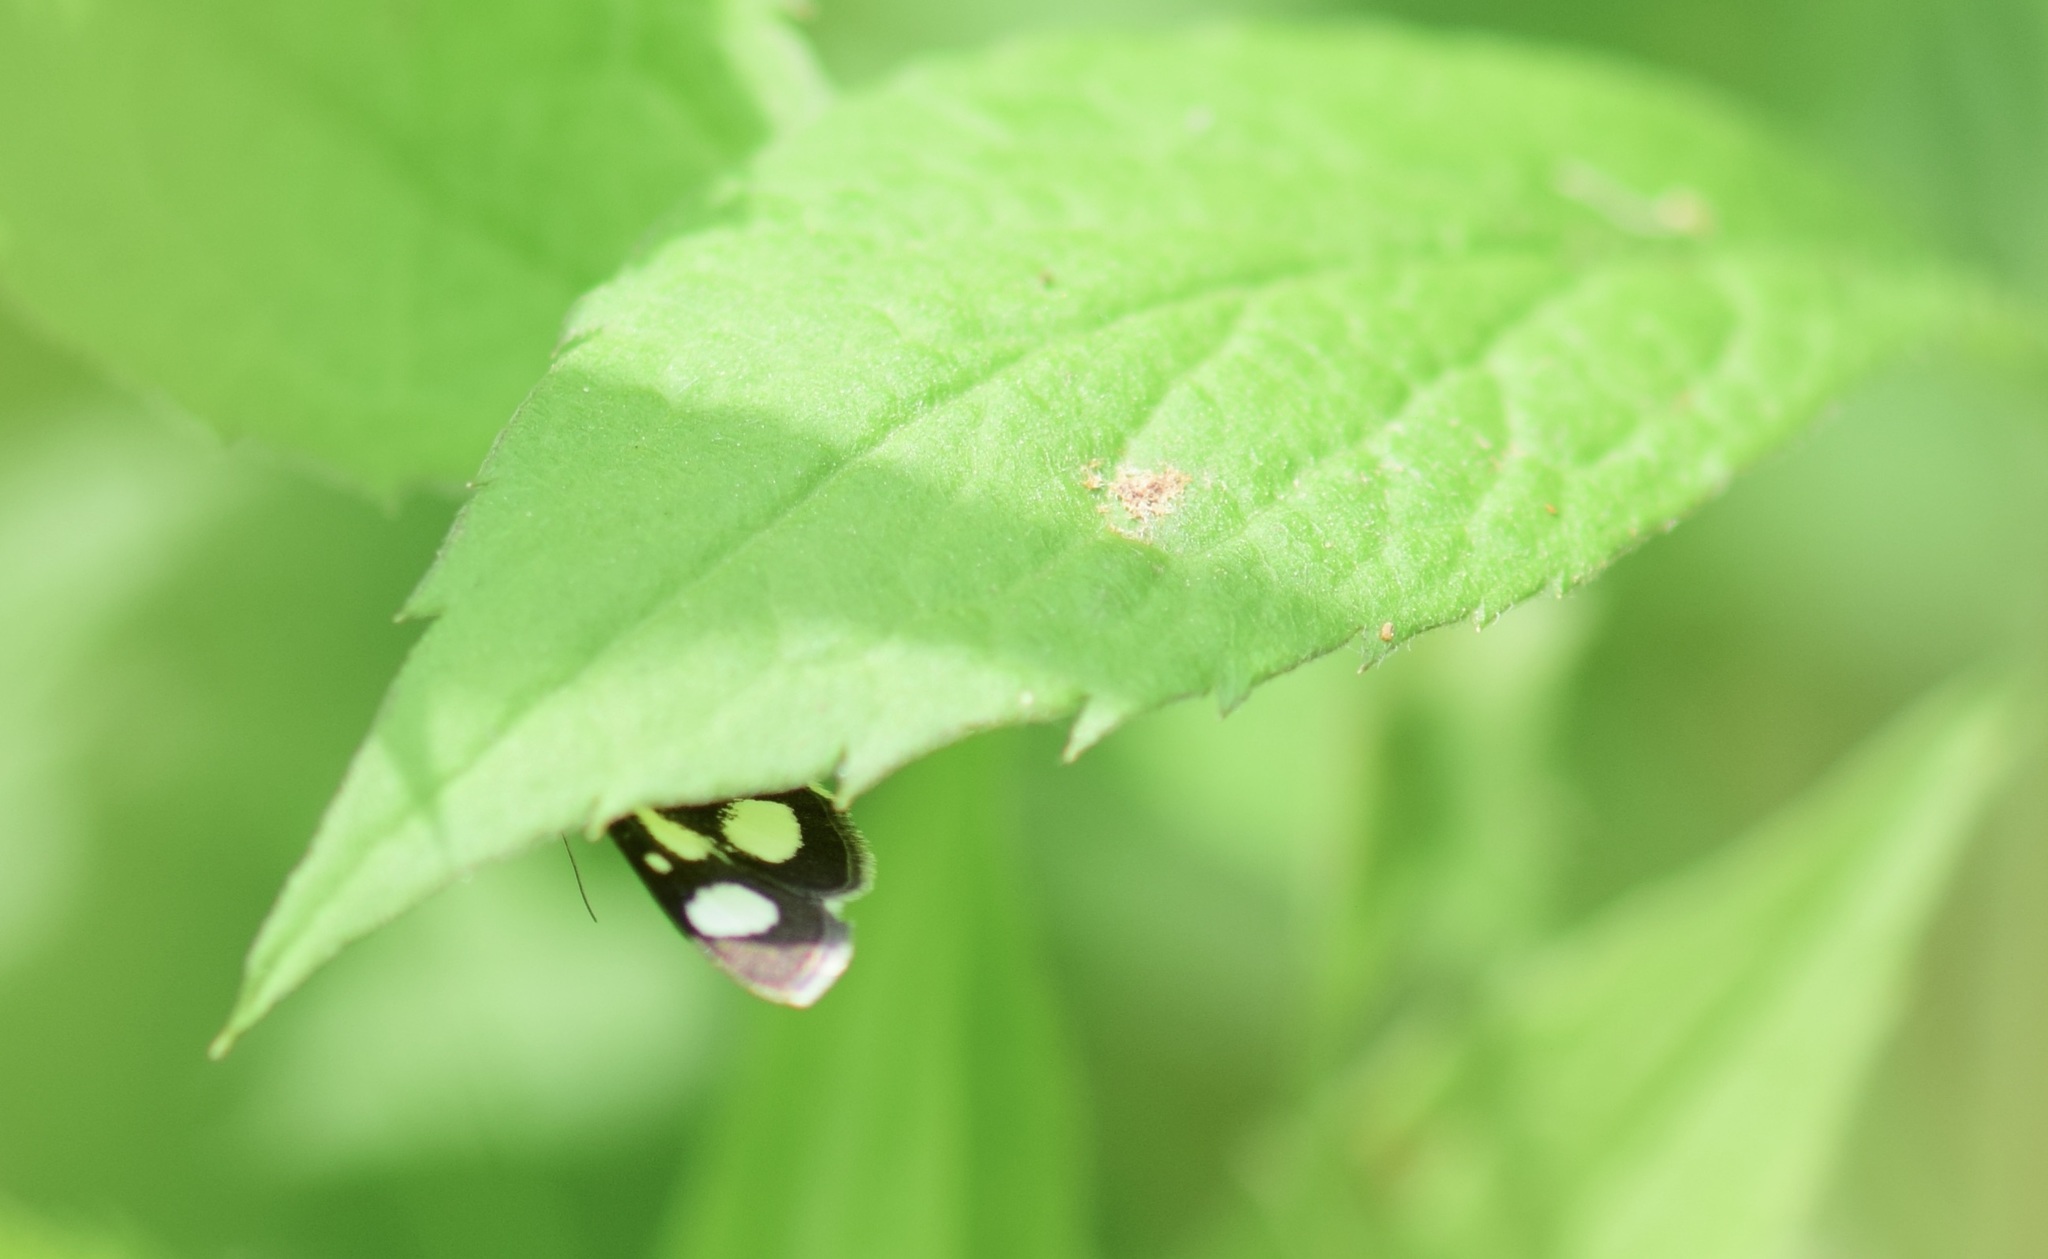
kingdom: Animalia
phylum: Arthropoda
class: Insecta
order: Lepidoptera
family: Crambidae
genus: Anania
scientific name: Anania funebris
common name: White-spotted sable moth
